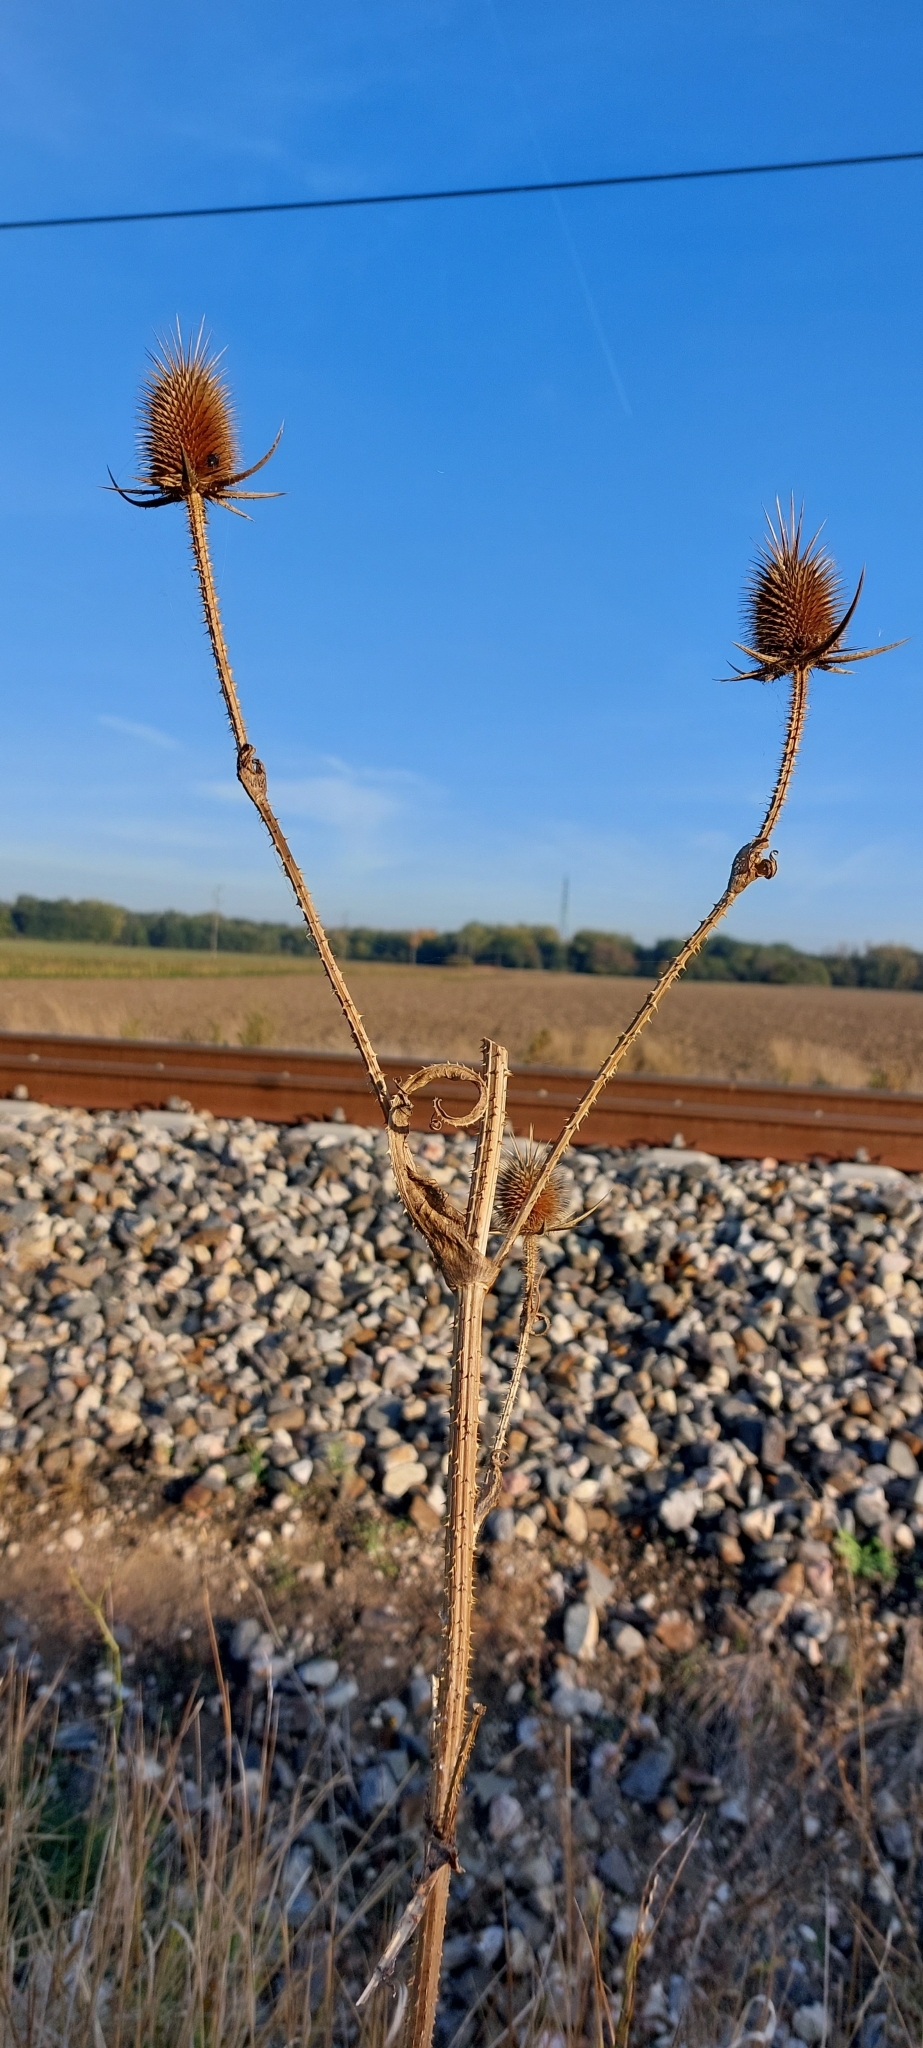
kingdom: Plantae
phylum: Tracheophyta
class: Magnoliopsida
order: Dipsacales
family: Caprifoliaceae
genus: Dipsacus
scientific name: Dipsacus laciniatus
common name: Cut-leaved teasel
